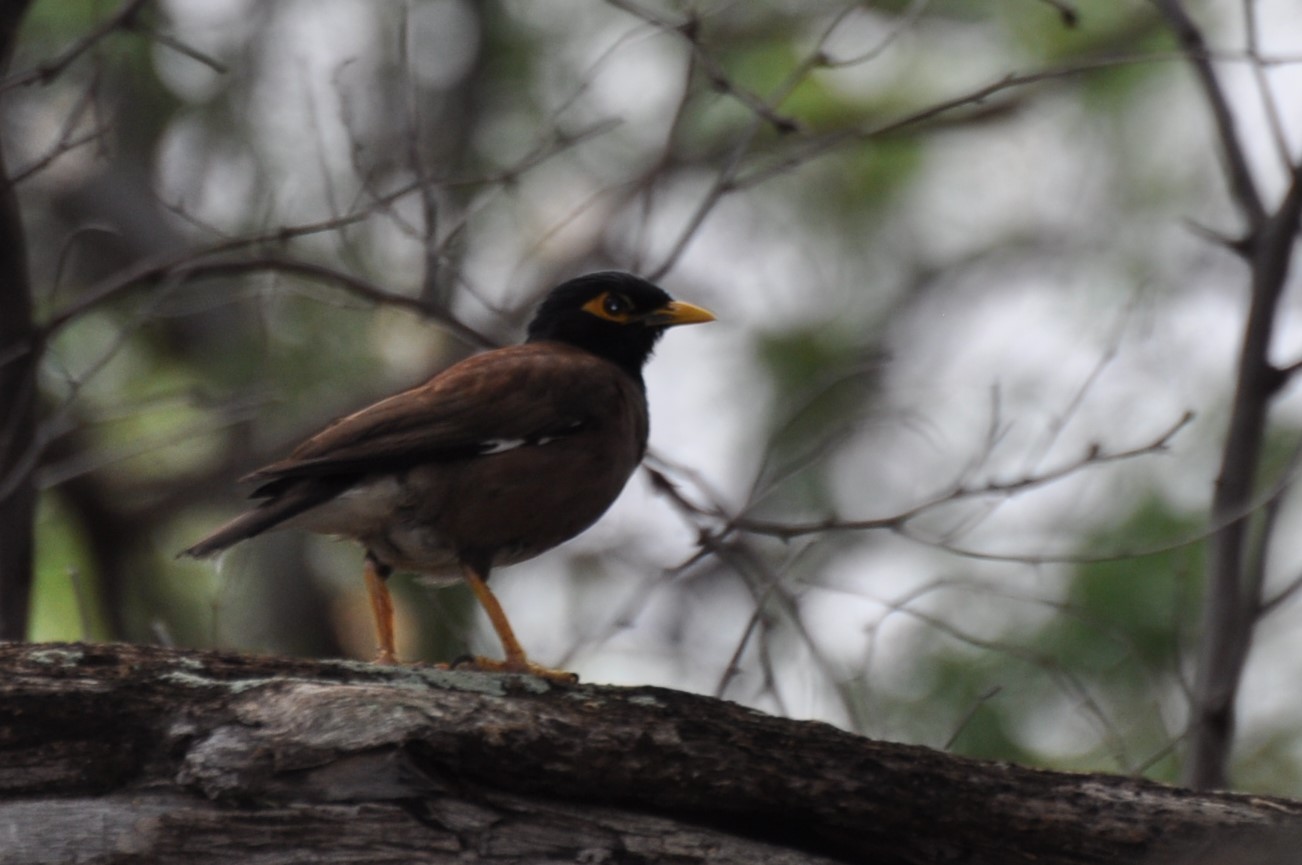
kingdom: Animalia
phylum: Chordata
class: Aves
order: Passeriformes
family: Sturnidae
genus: Acridotheres
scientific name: Acridotheres tristis
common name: Common myna
